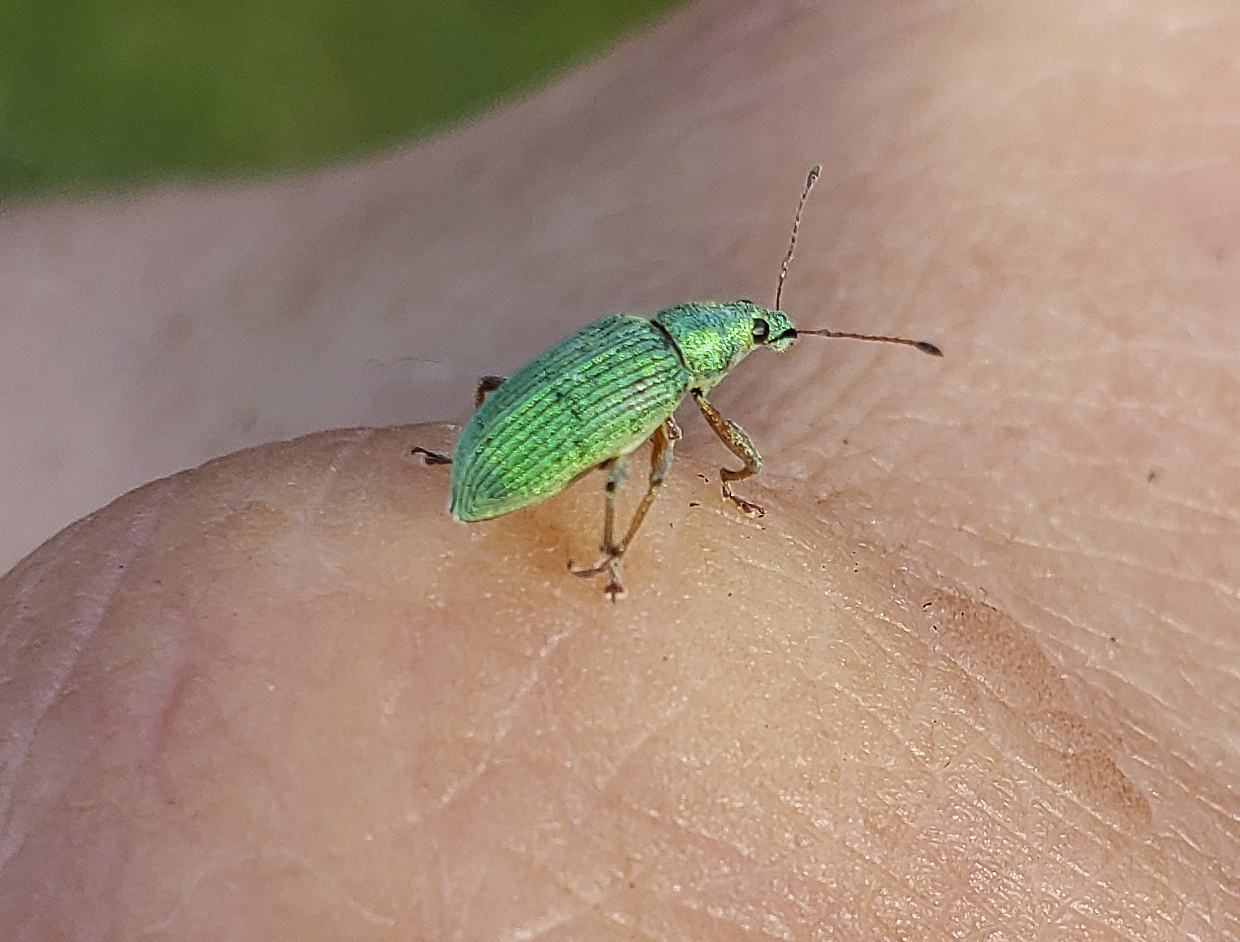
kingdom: Animalia
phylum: Arthropoda
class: Insecta
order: Coleoptera
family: Curculionidae
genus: Polydrusus
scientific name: Polydrusus formosus
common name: Weevil
